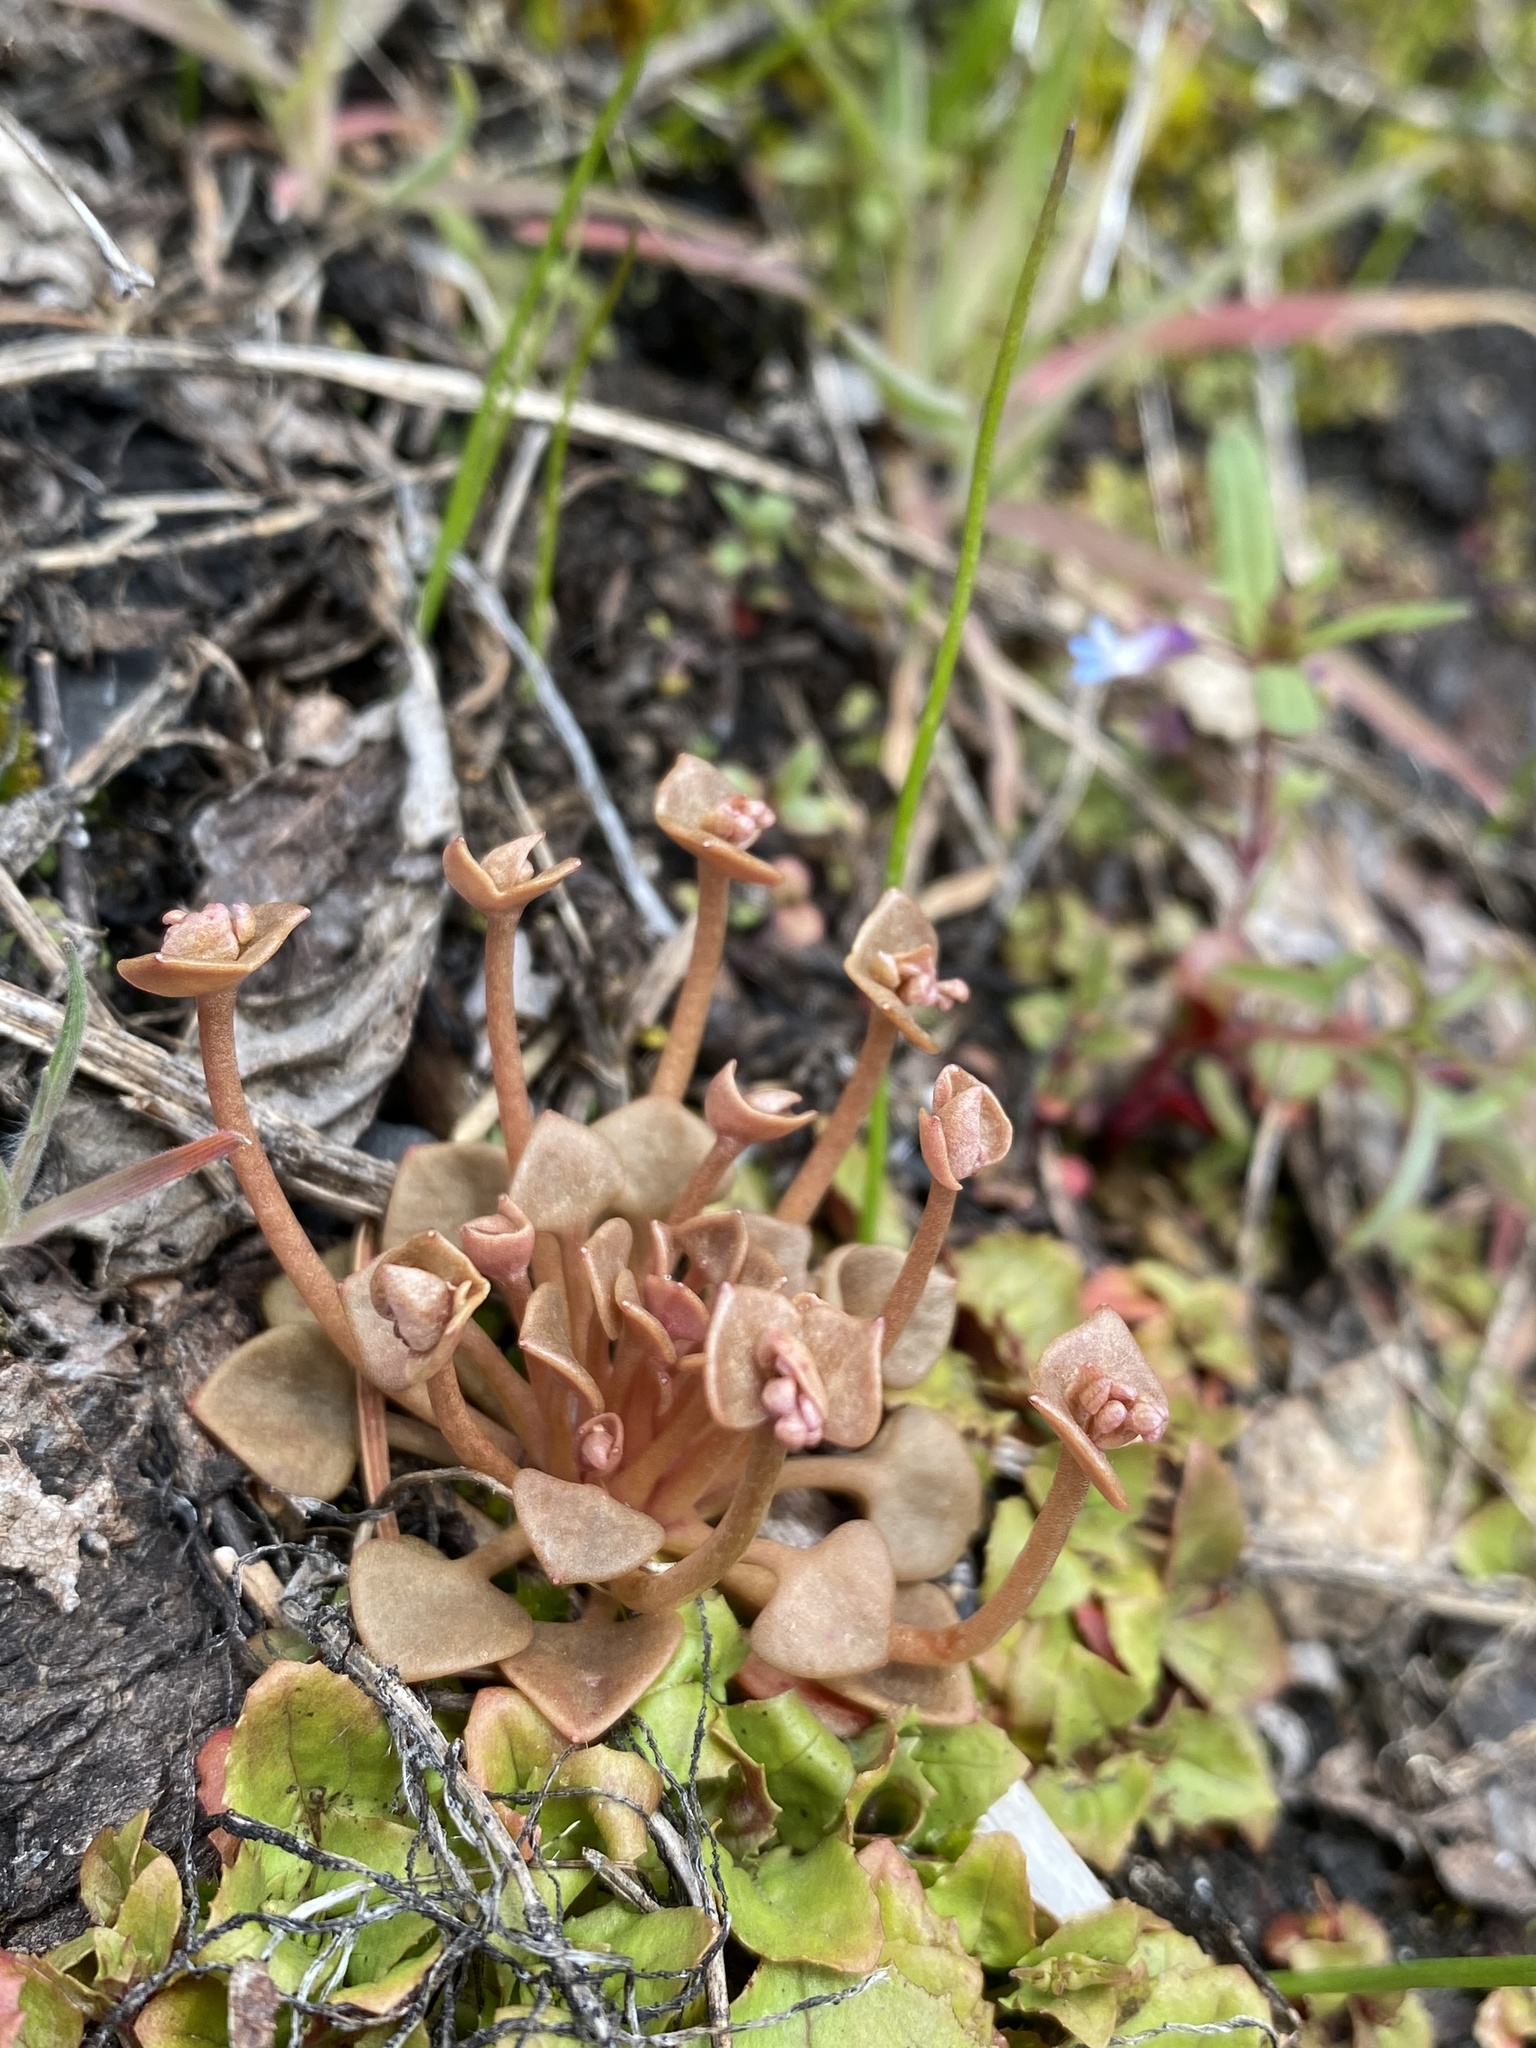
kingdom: Plantae
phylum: Tracheophyta
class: Magnoliopsida
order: Caryophyllales
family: Montiaceae
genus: Claytonia
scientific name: Claytonia rubra
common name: Erubescent miner's-lettuce
